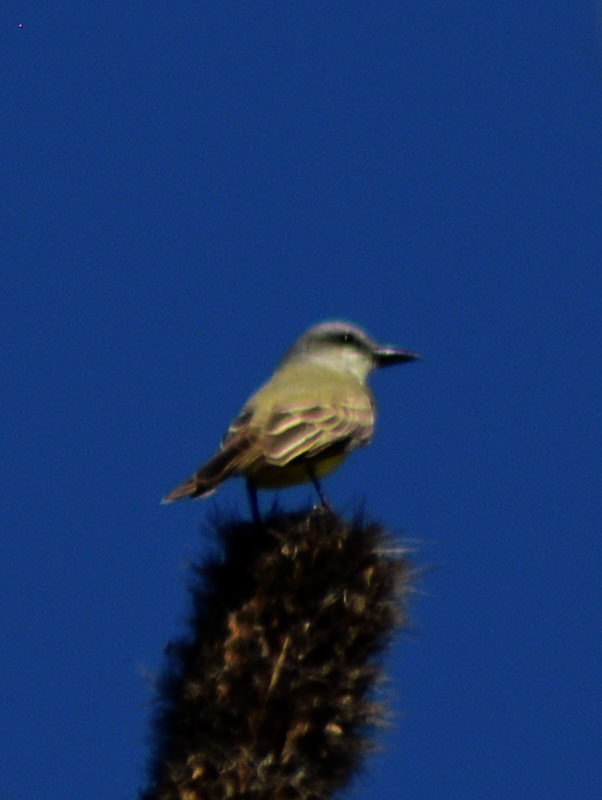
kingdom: Animalia
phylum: Chordata
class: Aves
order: Passeriformes
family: Tyrannidae
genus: Tyrannus
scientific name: Tyrannus melancholicus
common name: Tropical kingbird
